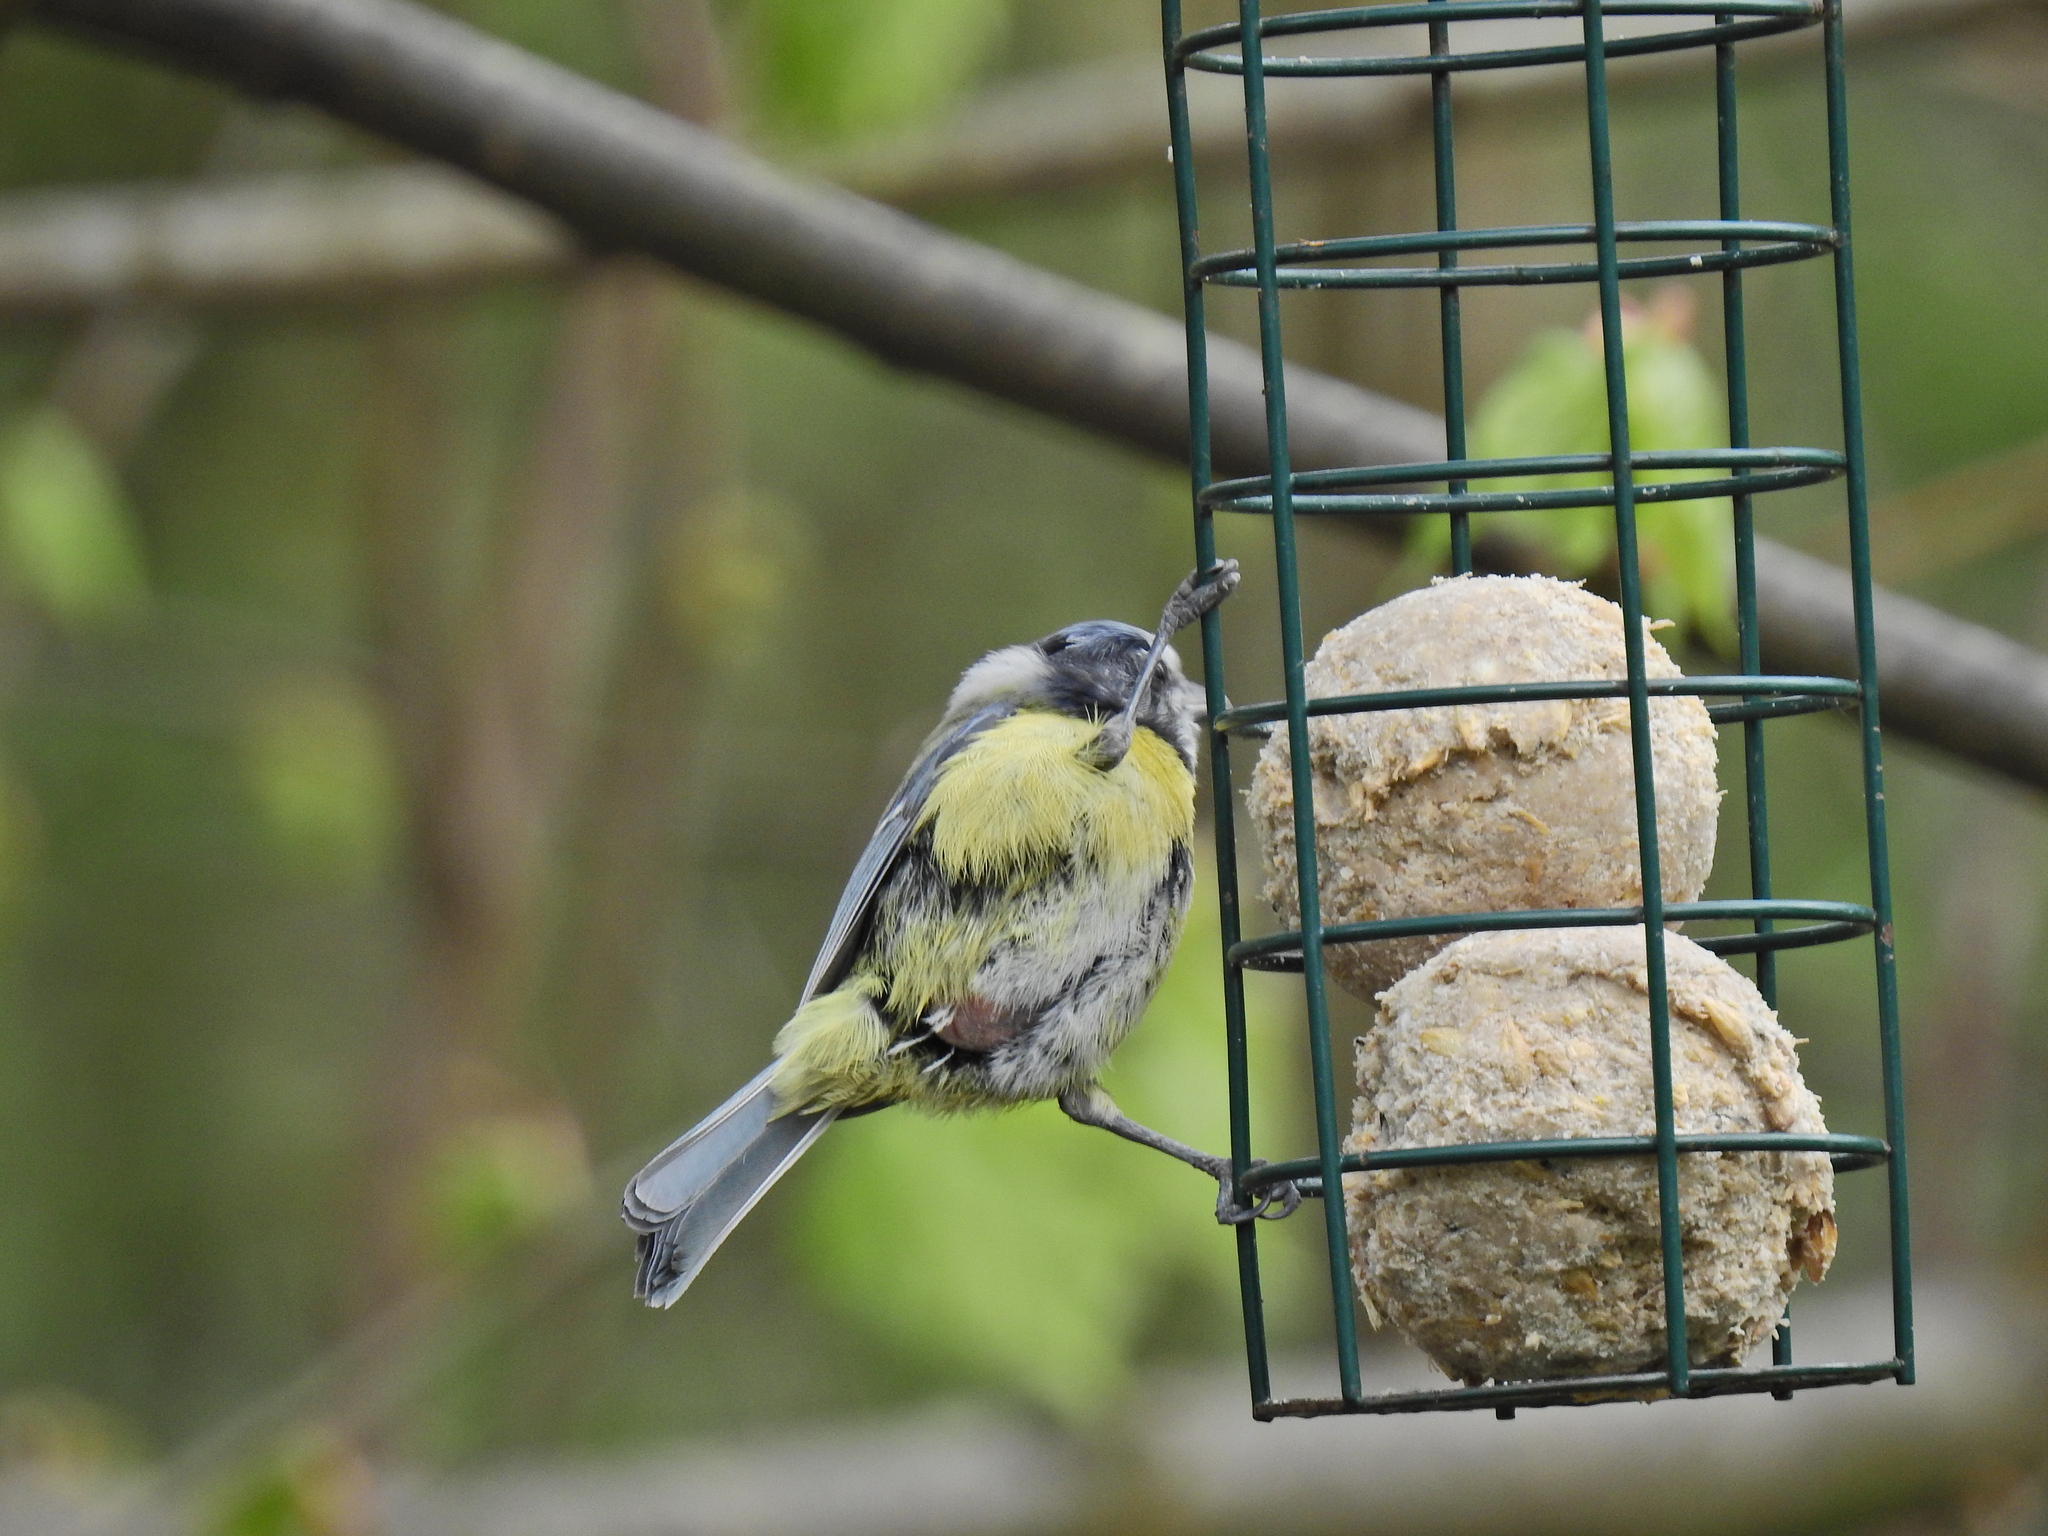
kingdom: Animalia
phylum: Chordata
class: Aves
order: Passeriformes
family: Paridae
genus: Cyanistes
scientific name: Cyanistes caeruleus
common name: Eurasian blue tit
